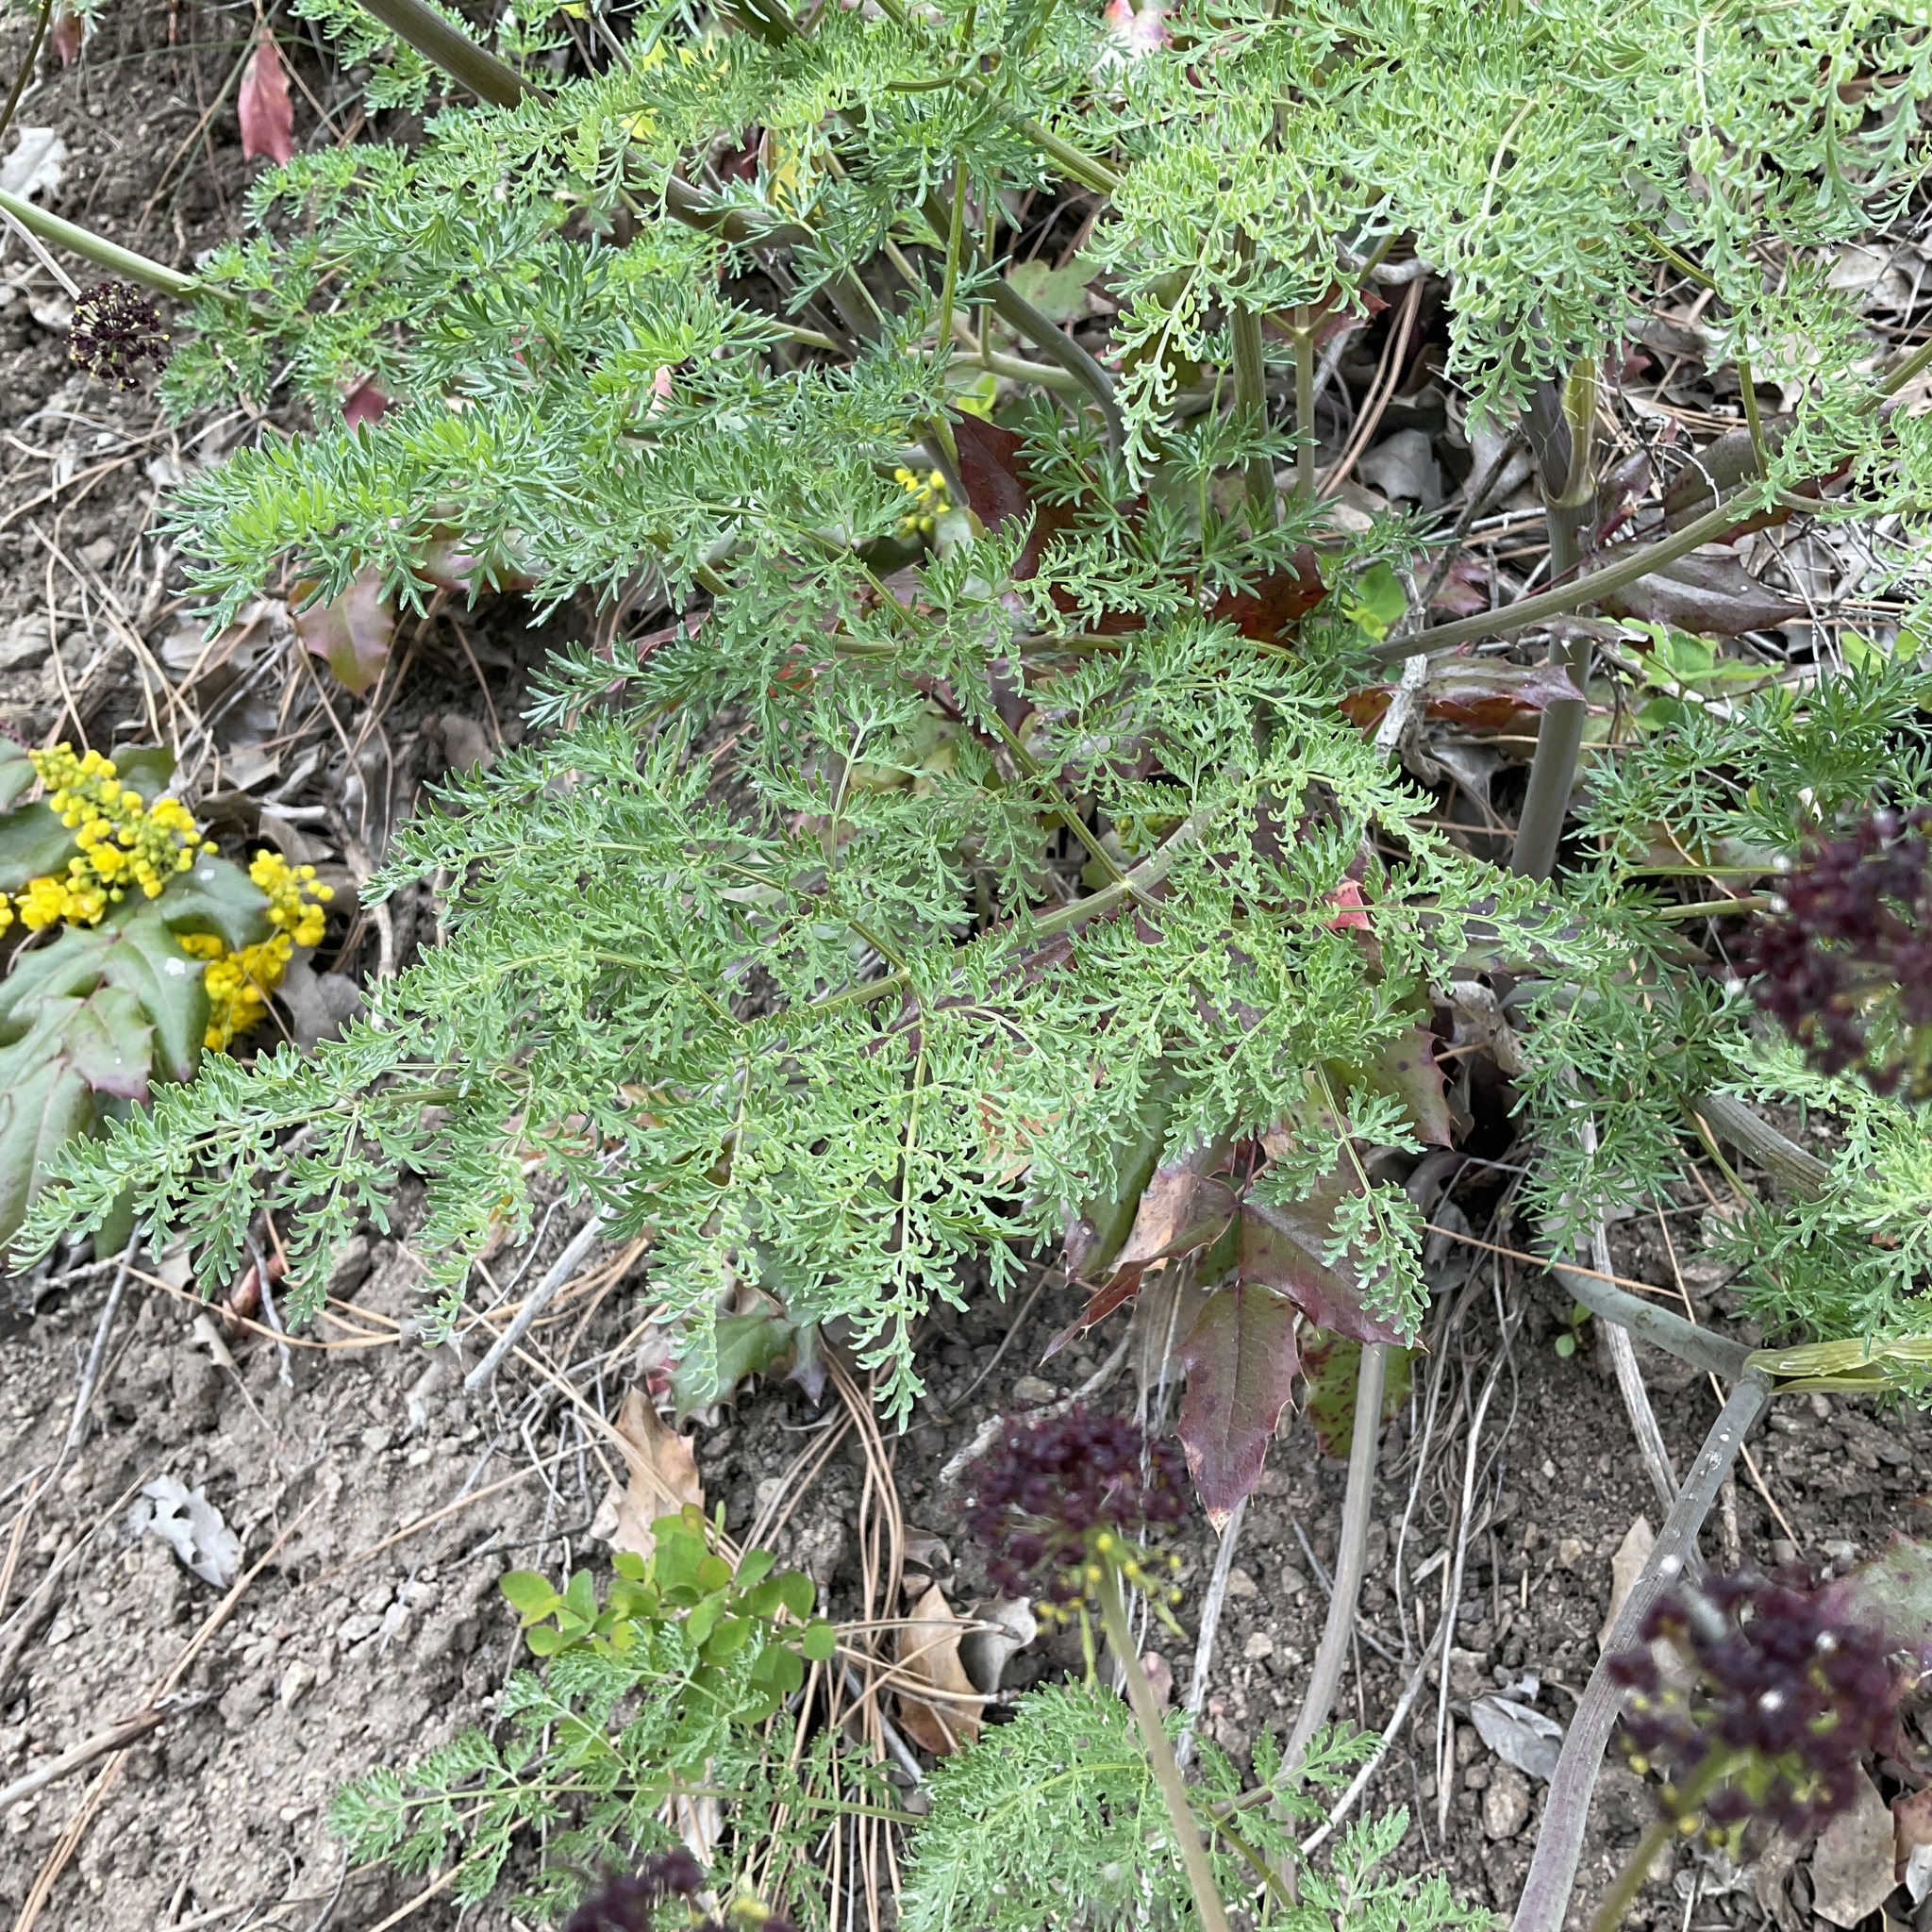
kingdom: Plantae
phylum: Tracheophyta
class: Magnoliopsida
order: Apiales
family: Apiaceae
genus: Lomatium
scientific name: Lomatium multifidum
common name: Carrot-leaved biscuitroot
